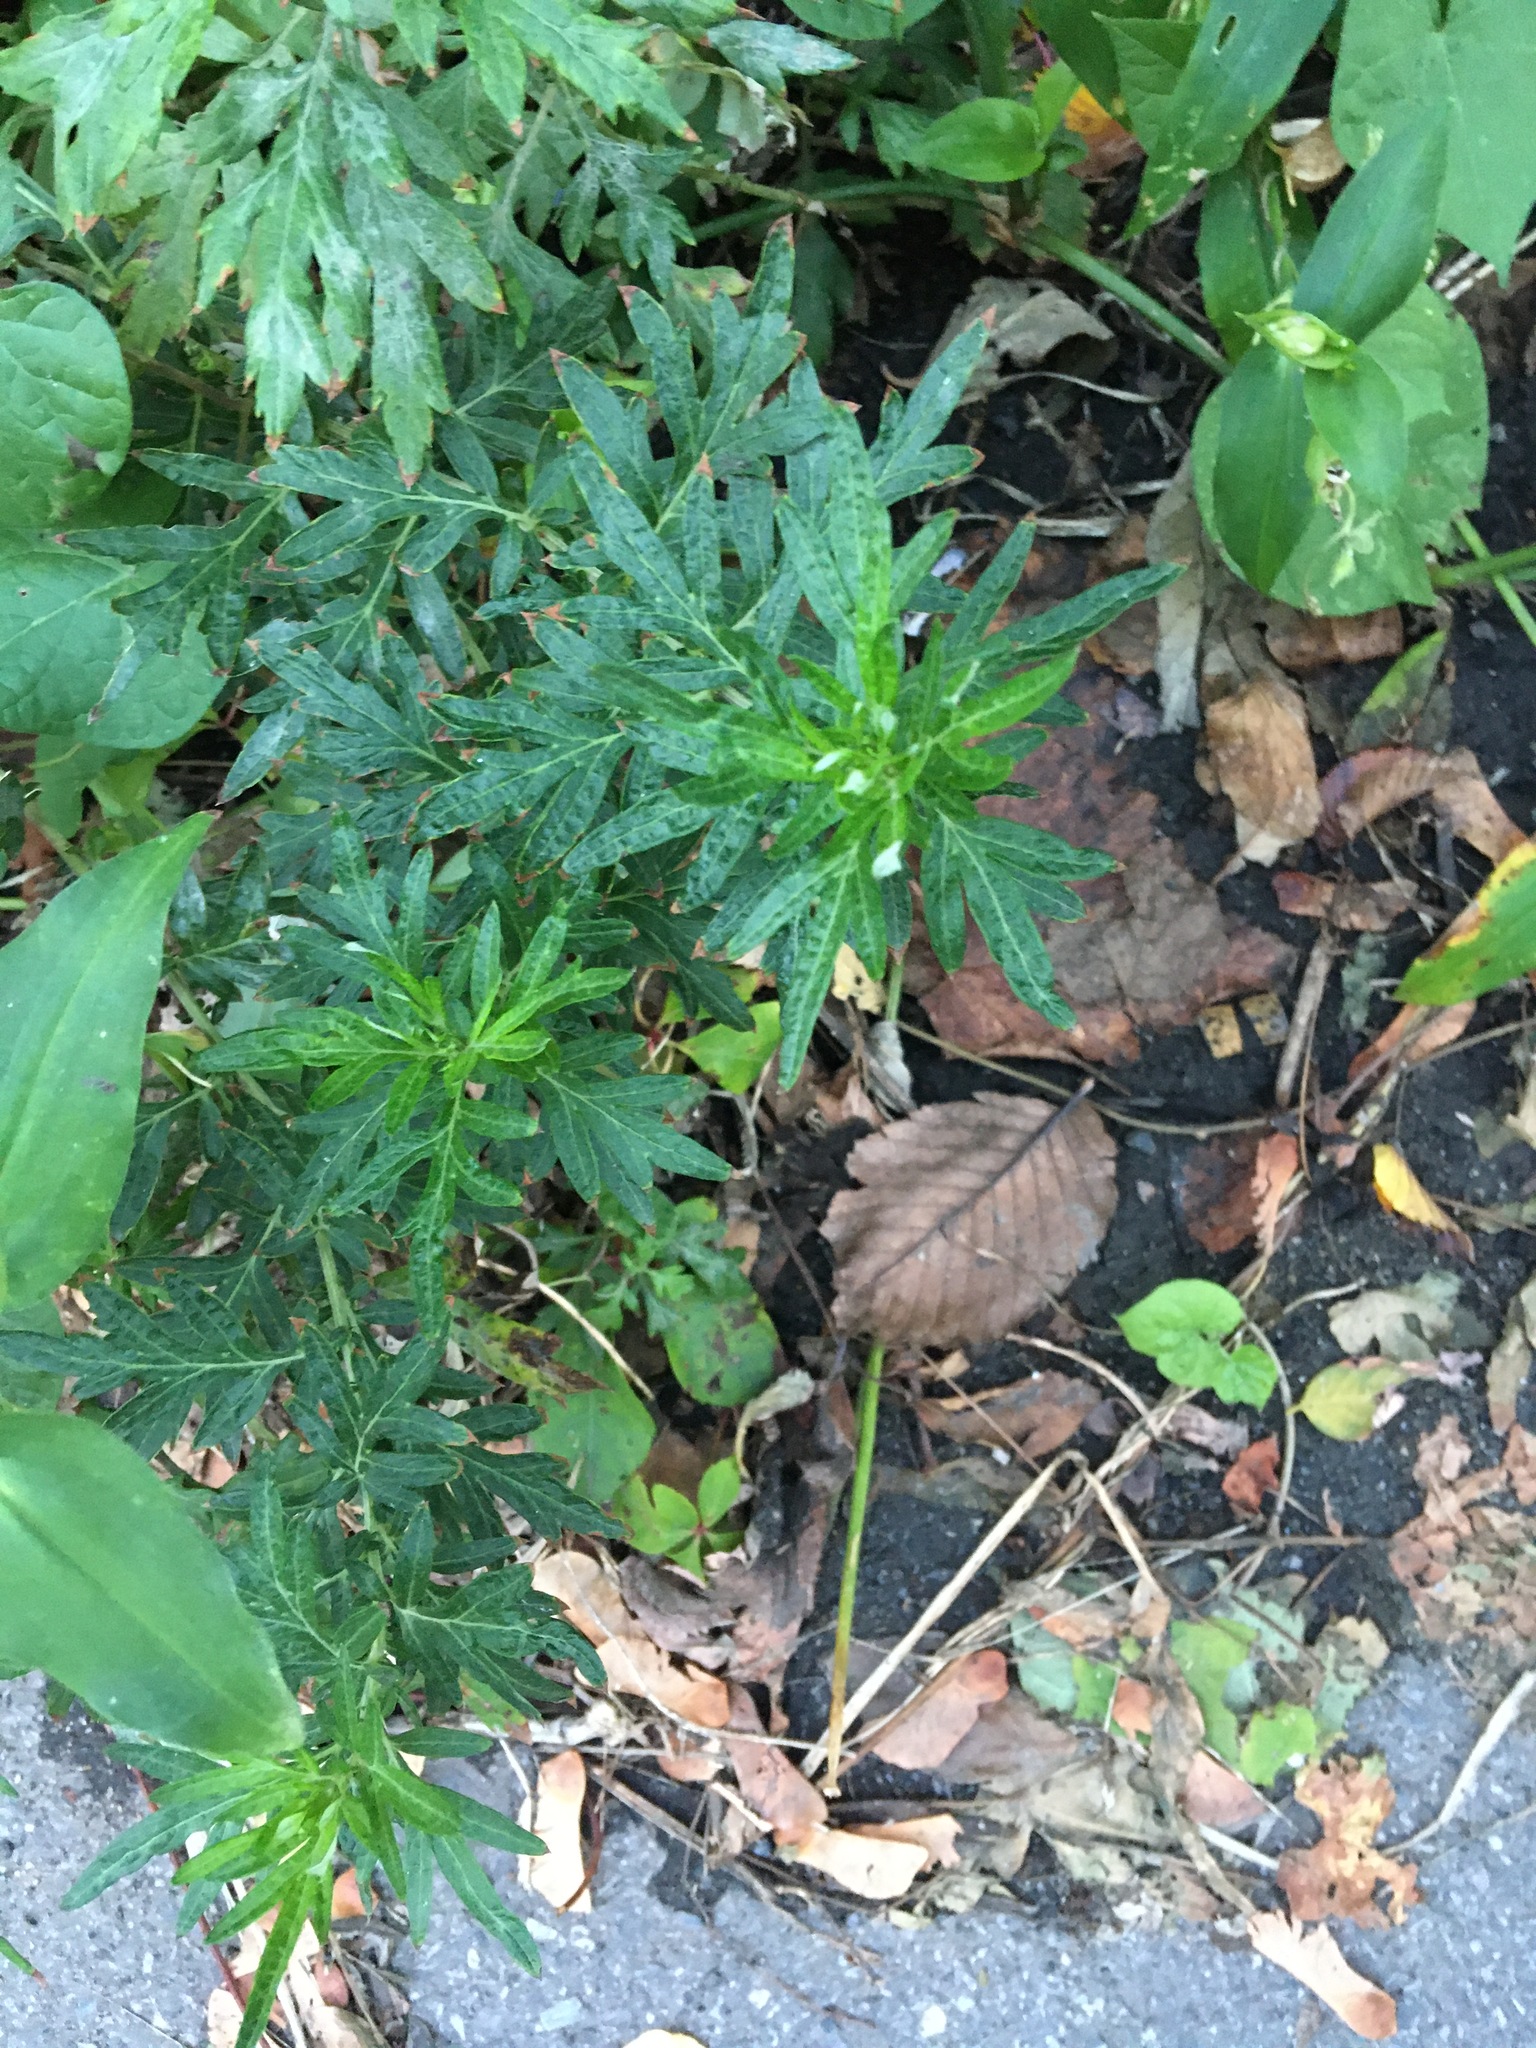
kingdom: Plantae
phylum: Tracheophyta
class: Magnoliopsida
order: Asterales
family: Asteraceae
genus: Artemisia
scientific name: Artemisia vulgaris
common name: Mugwort
